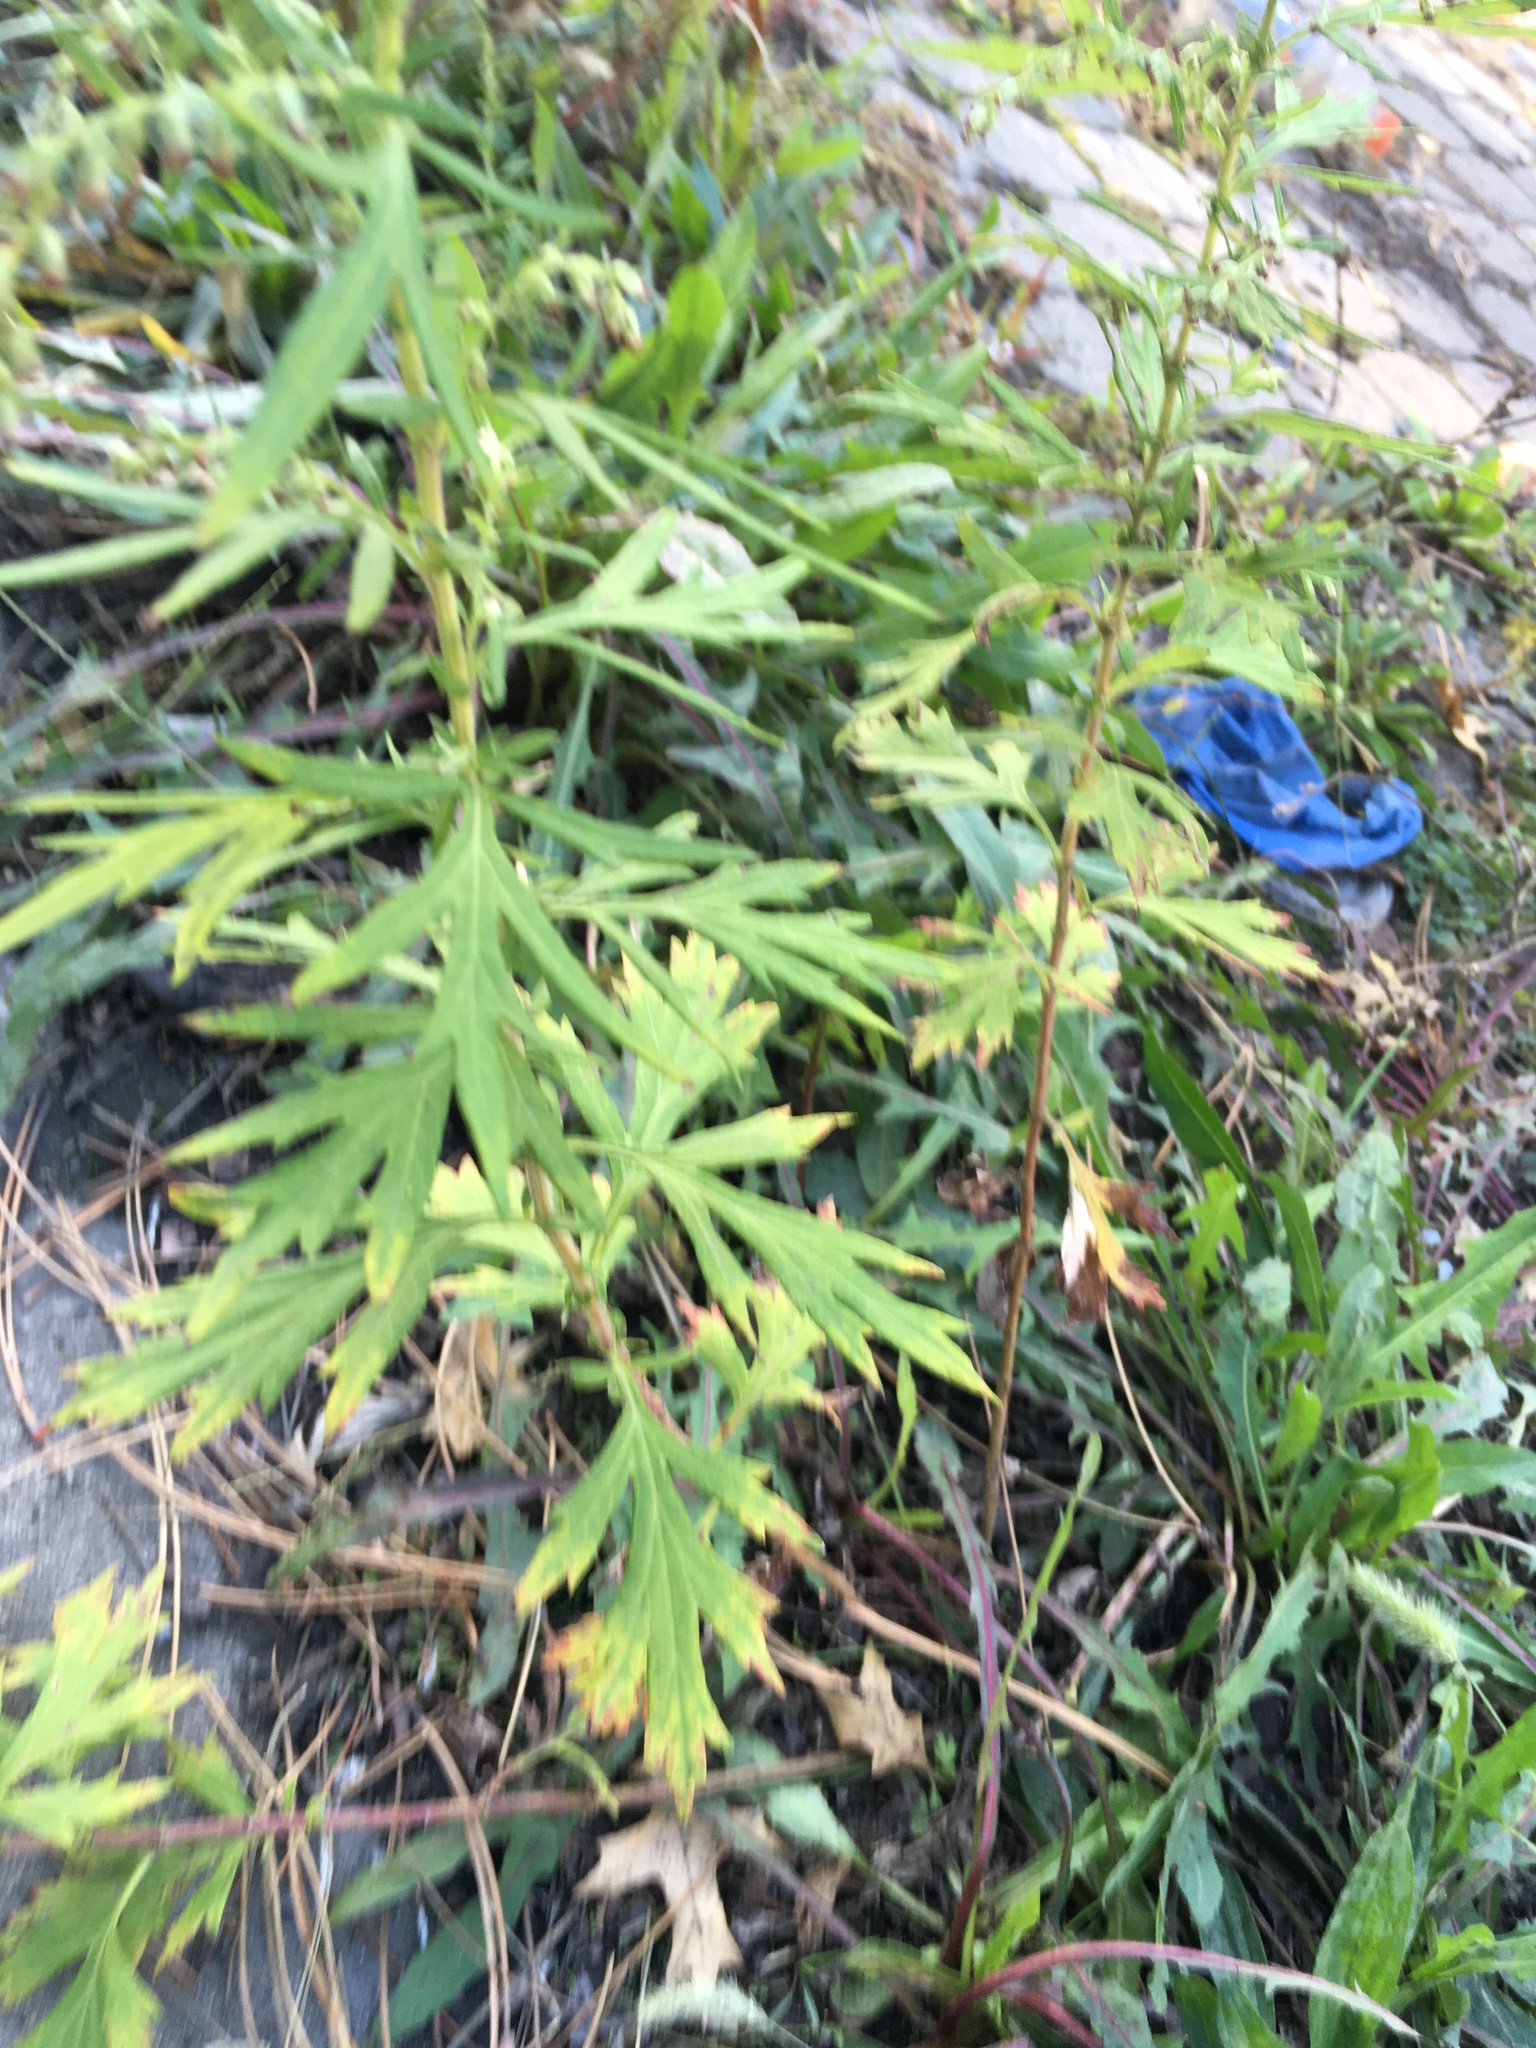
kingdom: Plantae
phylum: Tracheophyta
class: Magnoliopsida
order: Asterales
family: Asteraceae
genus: Artemisia
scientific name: Artemisia vulgaris
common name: Mugwort
